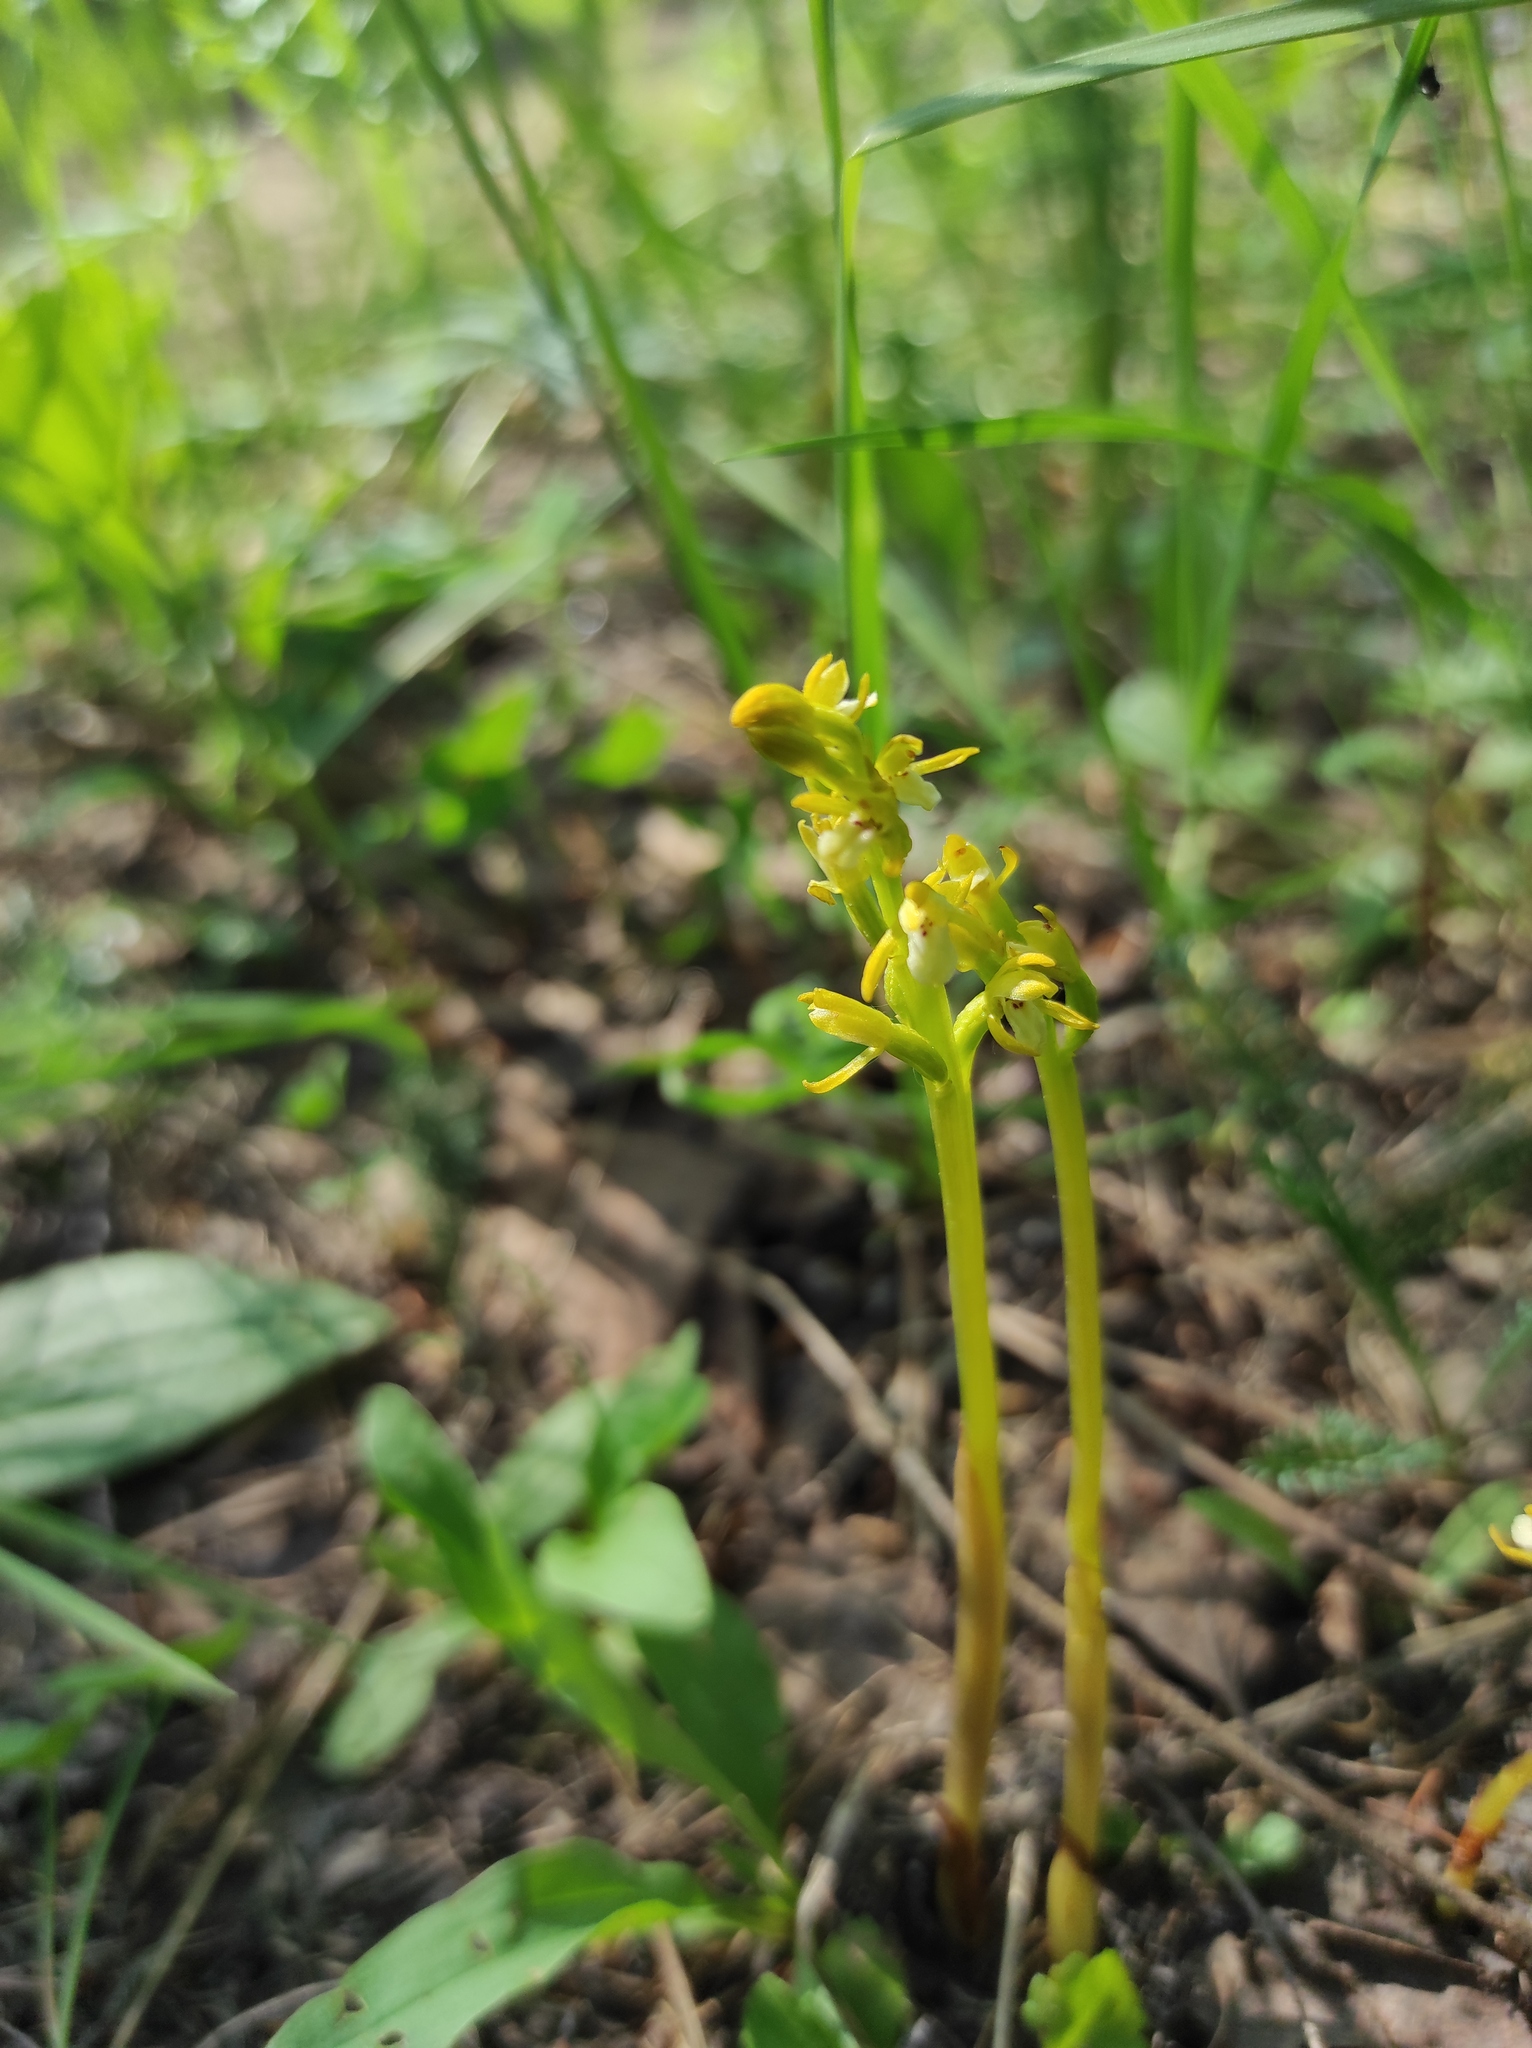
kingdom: Plantae
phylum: Tracheophyta
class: Liliopsida
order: Asparagales
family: Orchidaceae
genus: Corallorhiza
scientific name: Corallorhiza trifida
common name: Yellow coralroot
